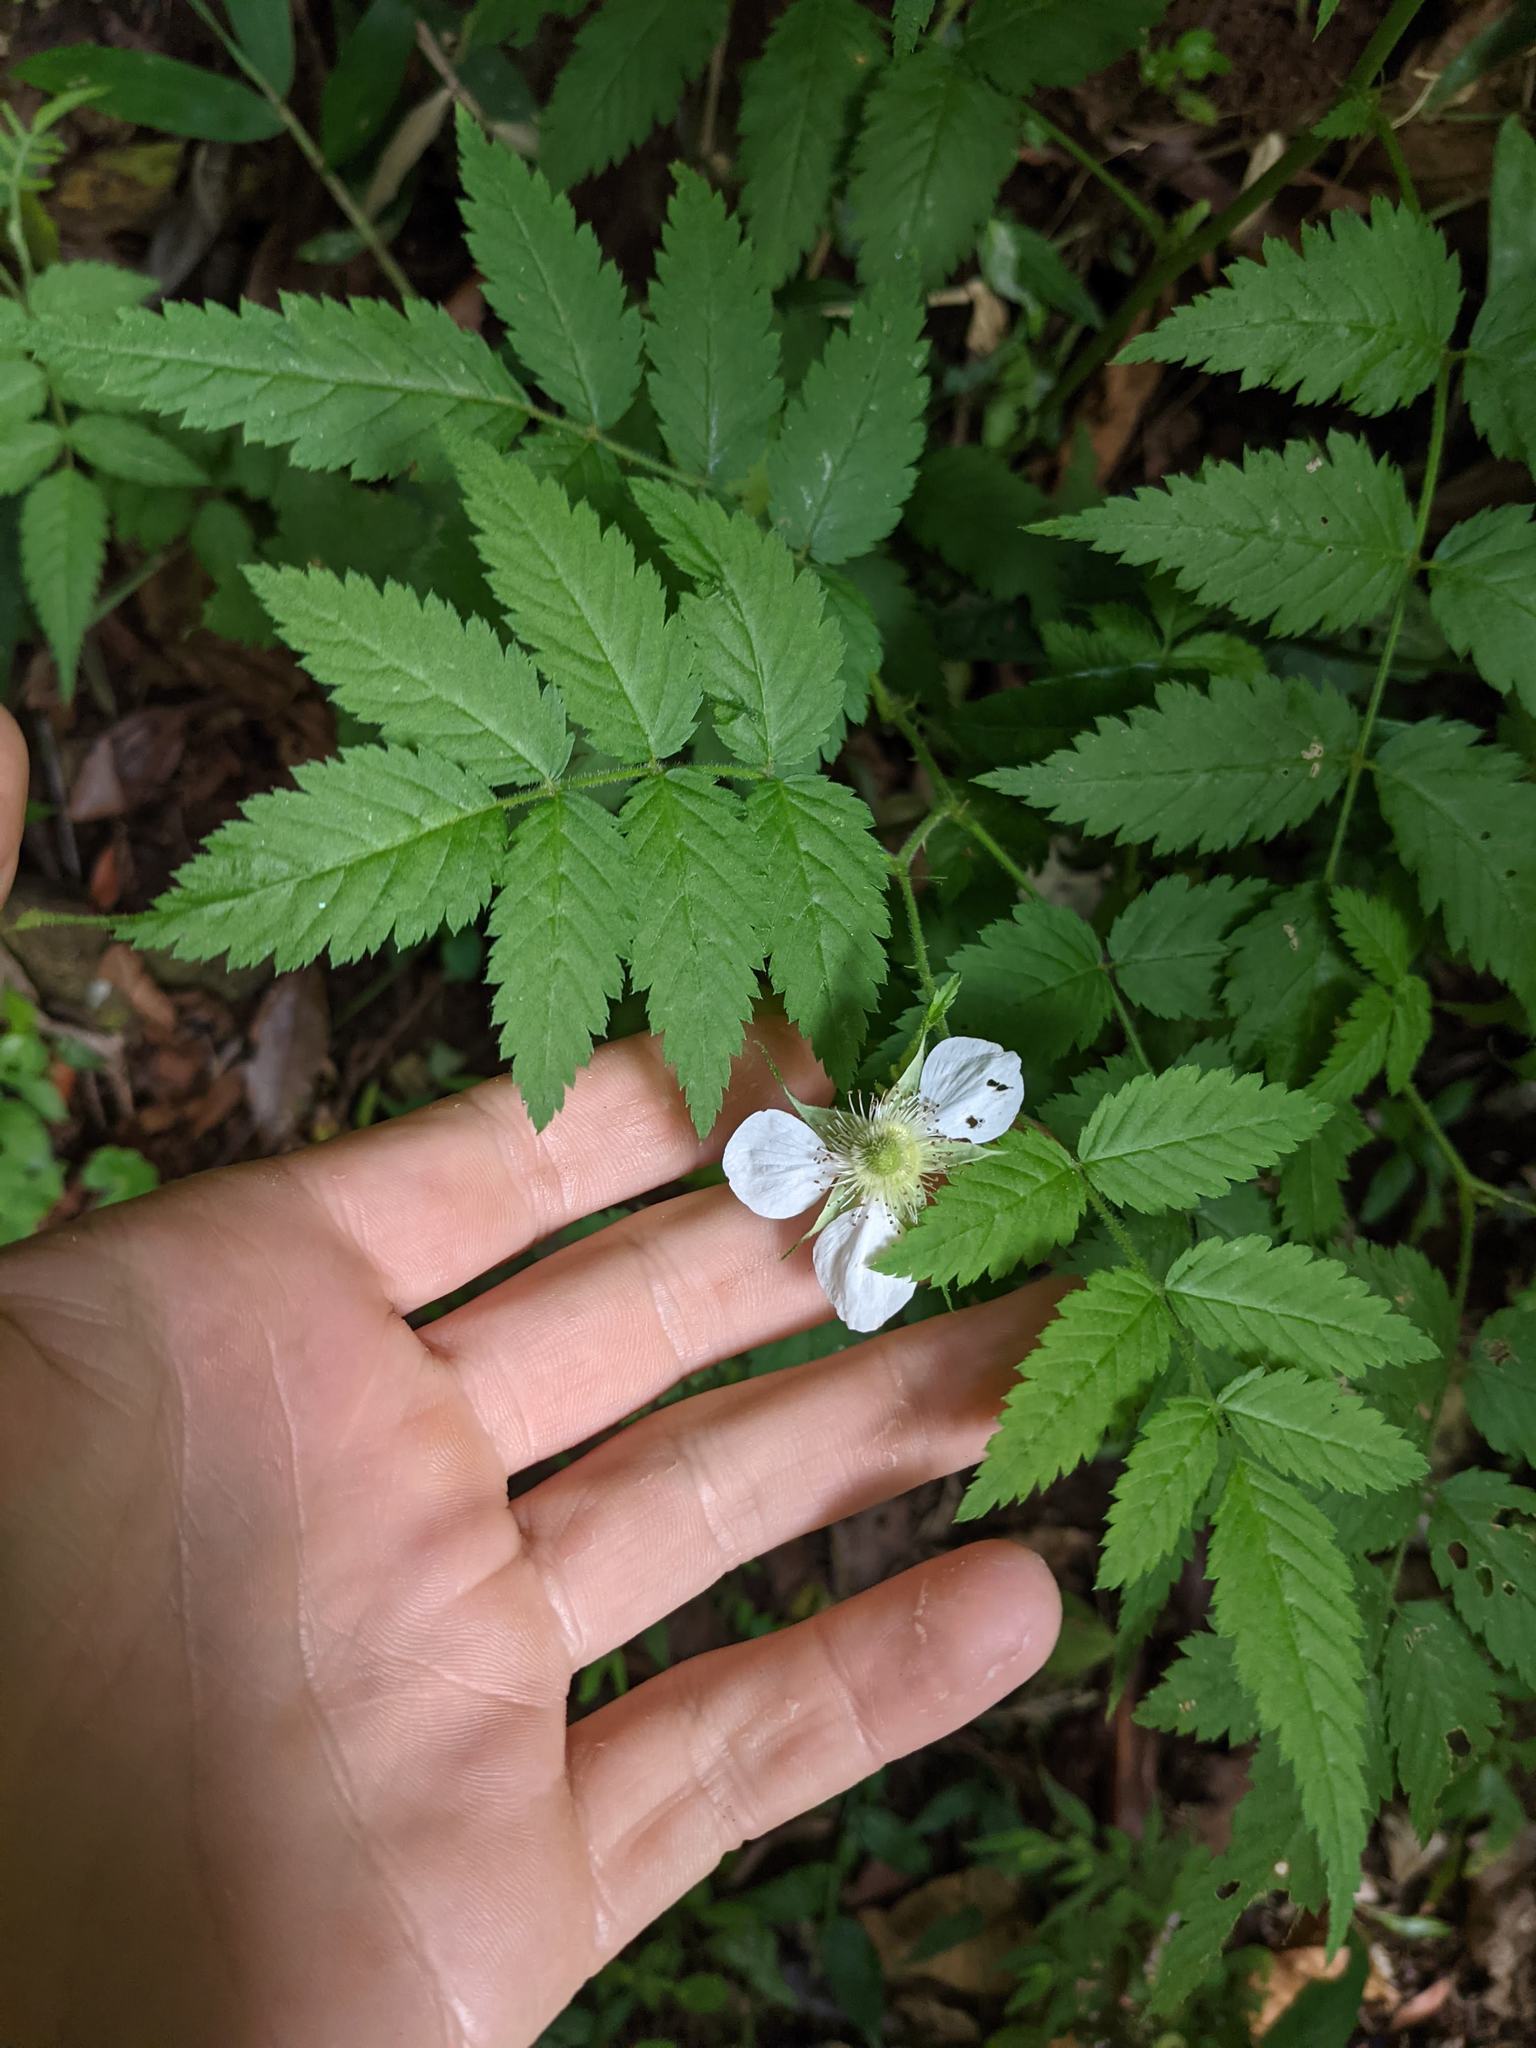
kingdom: Plantae
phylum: Tracheophyta
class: Magnoliopsida
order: Rosales
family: Rosaceae
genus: Rubus
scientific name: Rubus rosifolius
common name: Roseleaf raspberry
